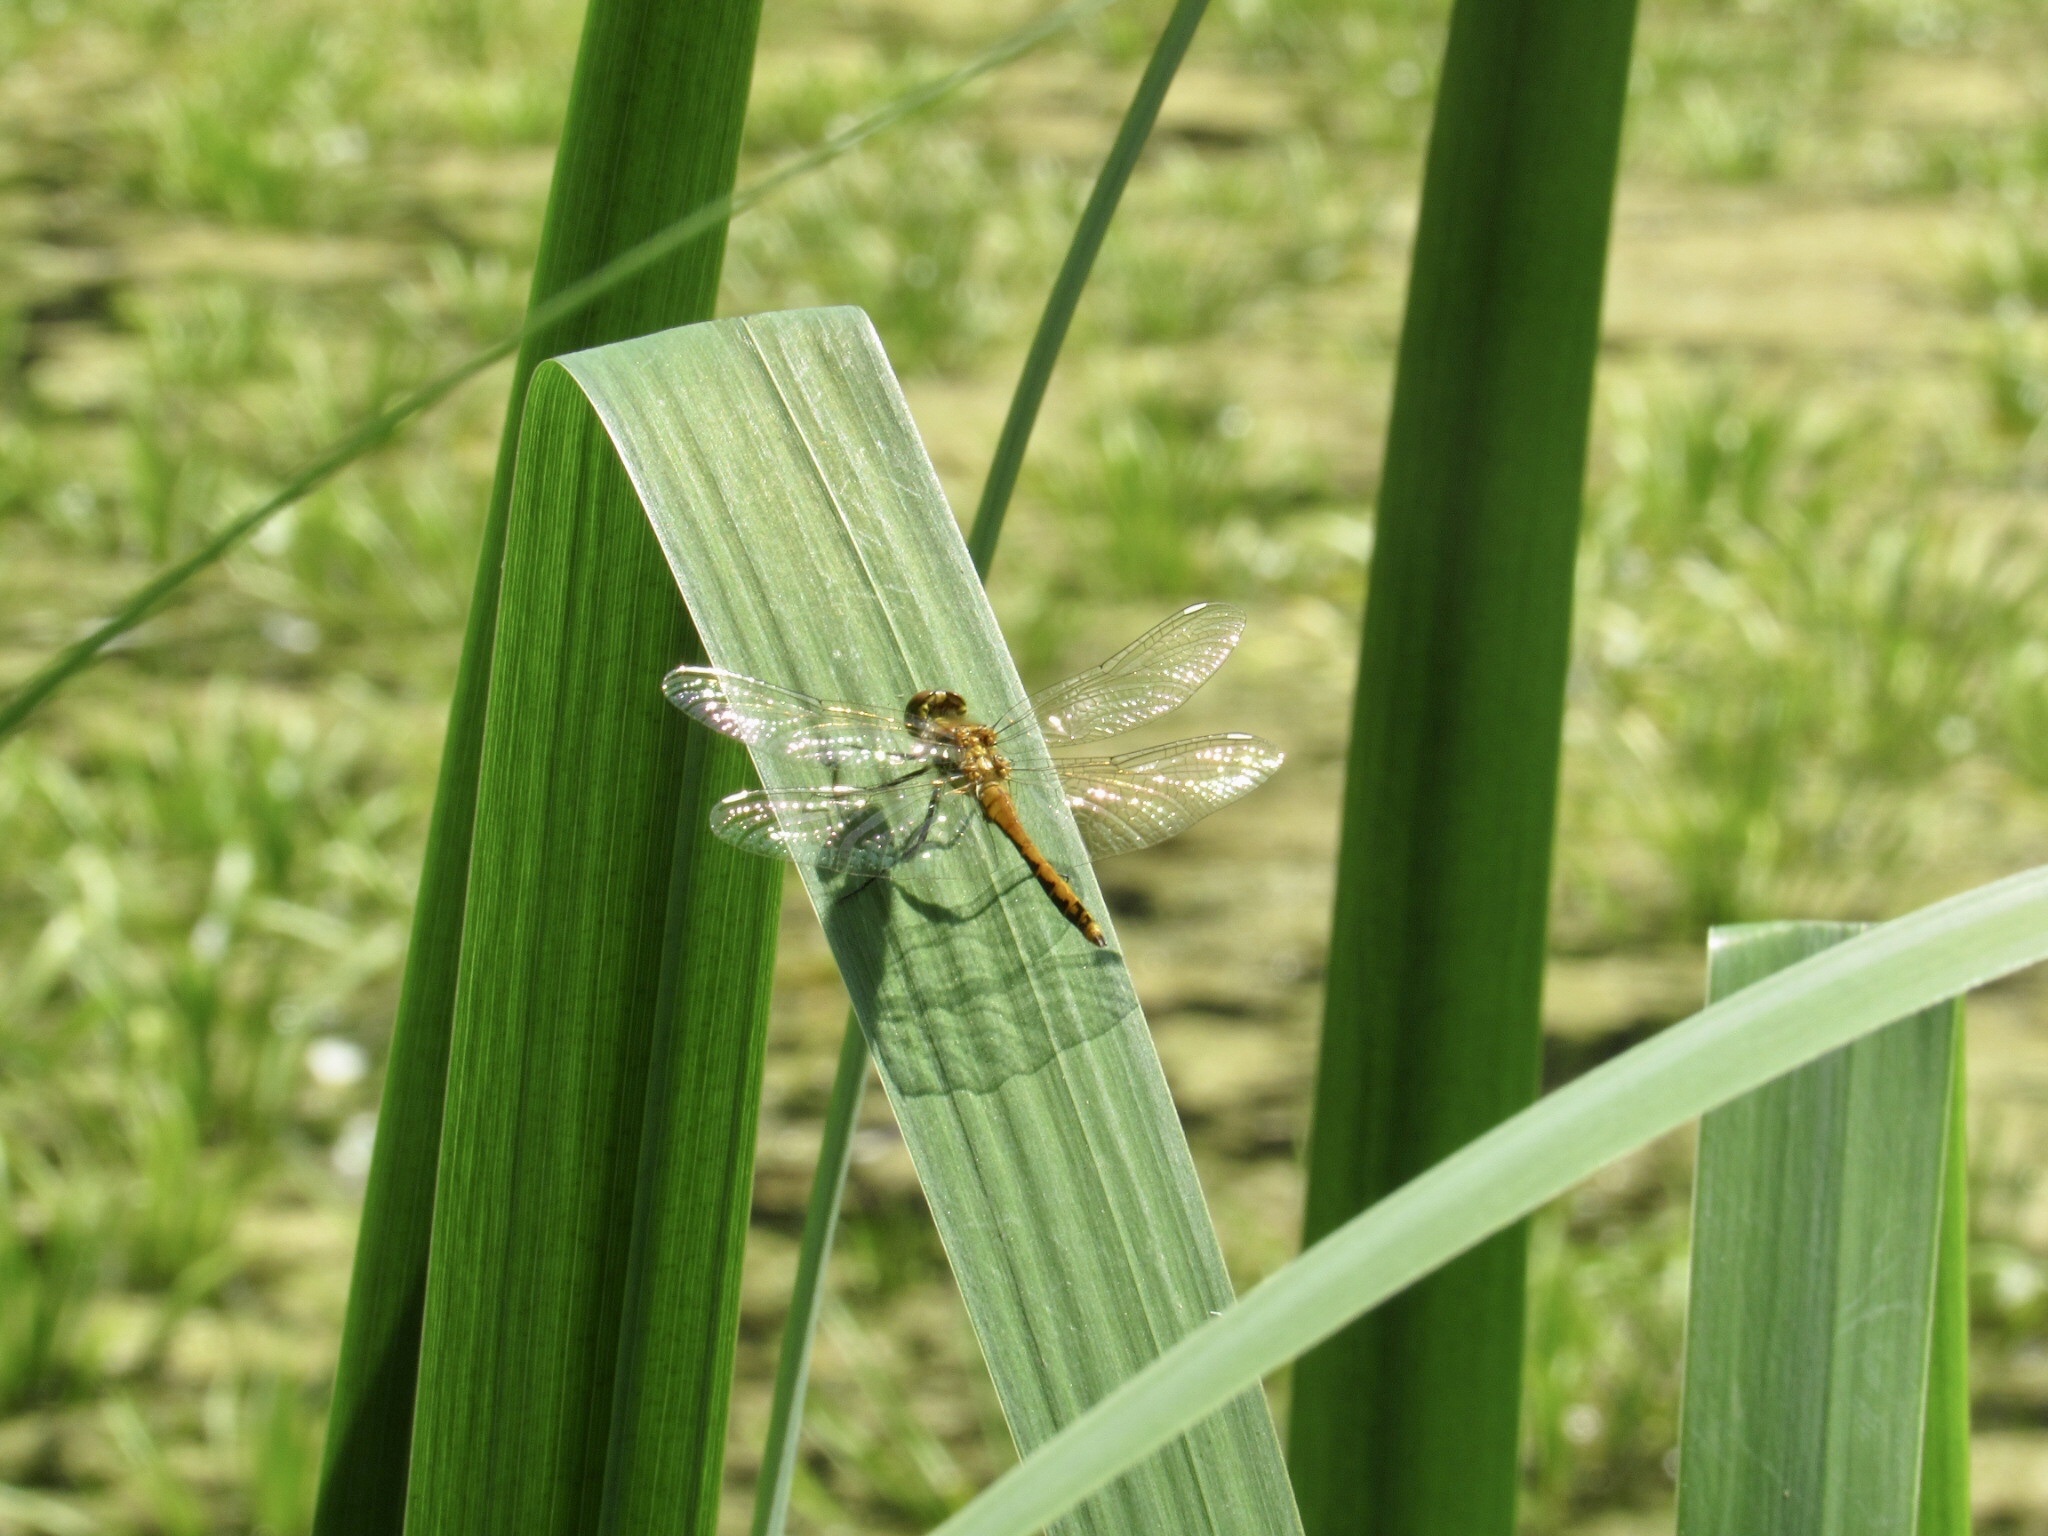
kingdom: Animalia
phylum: Arthropoda
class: Insecta
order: Odonata
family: Libellulidae
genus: Sympetrum
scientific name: Sympetrum danae
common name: Black darter
